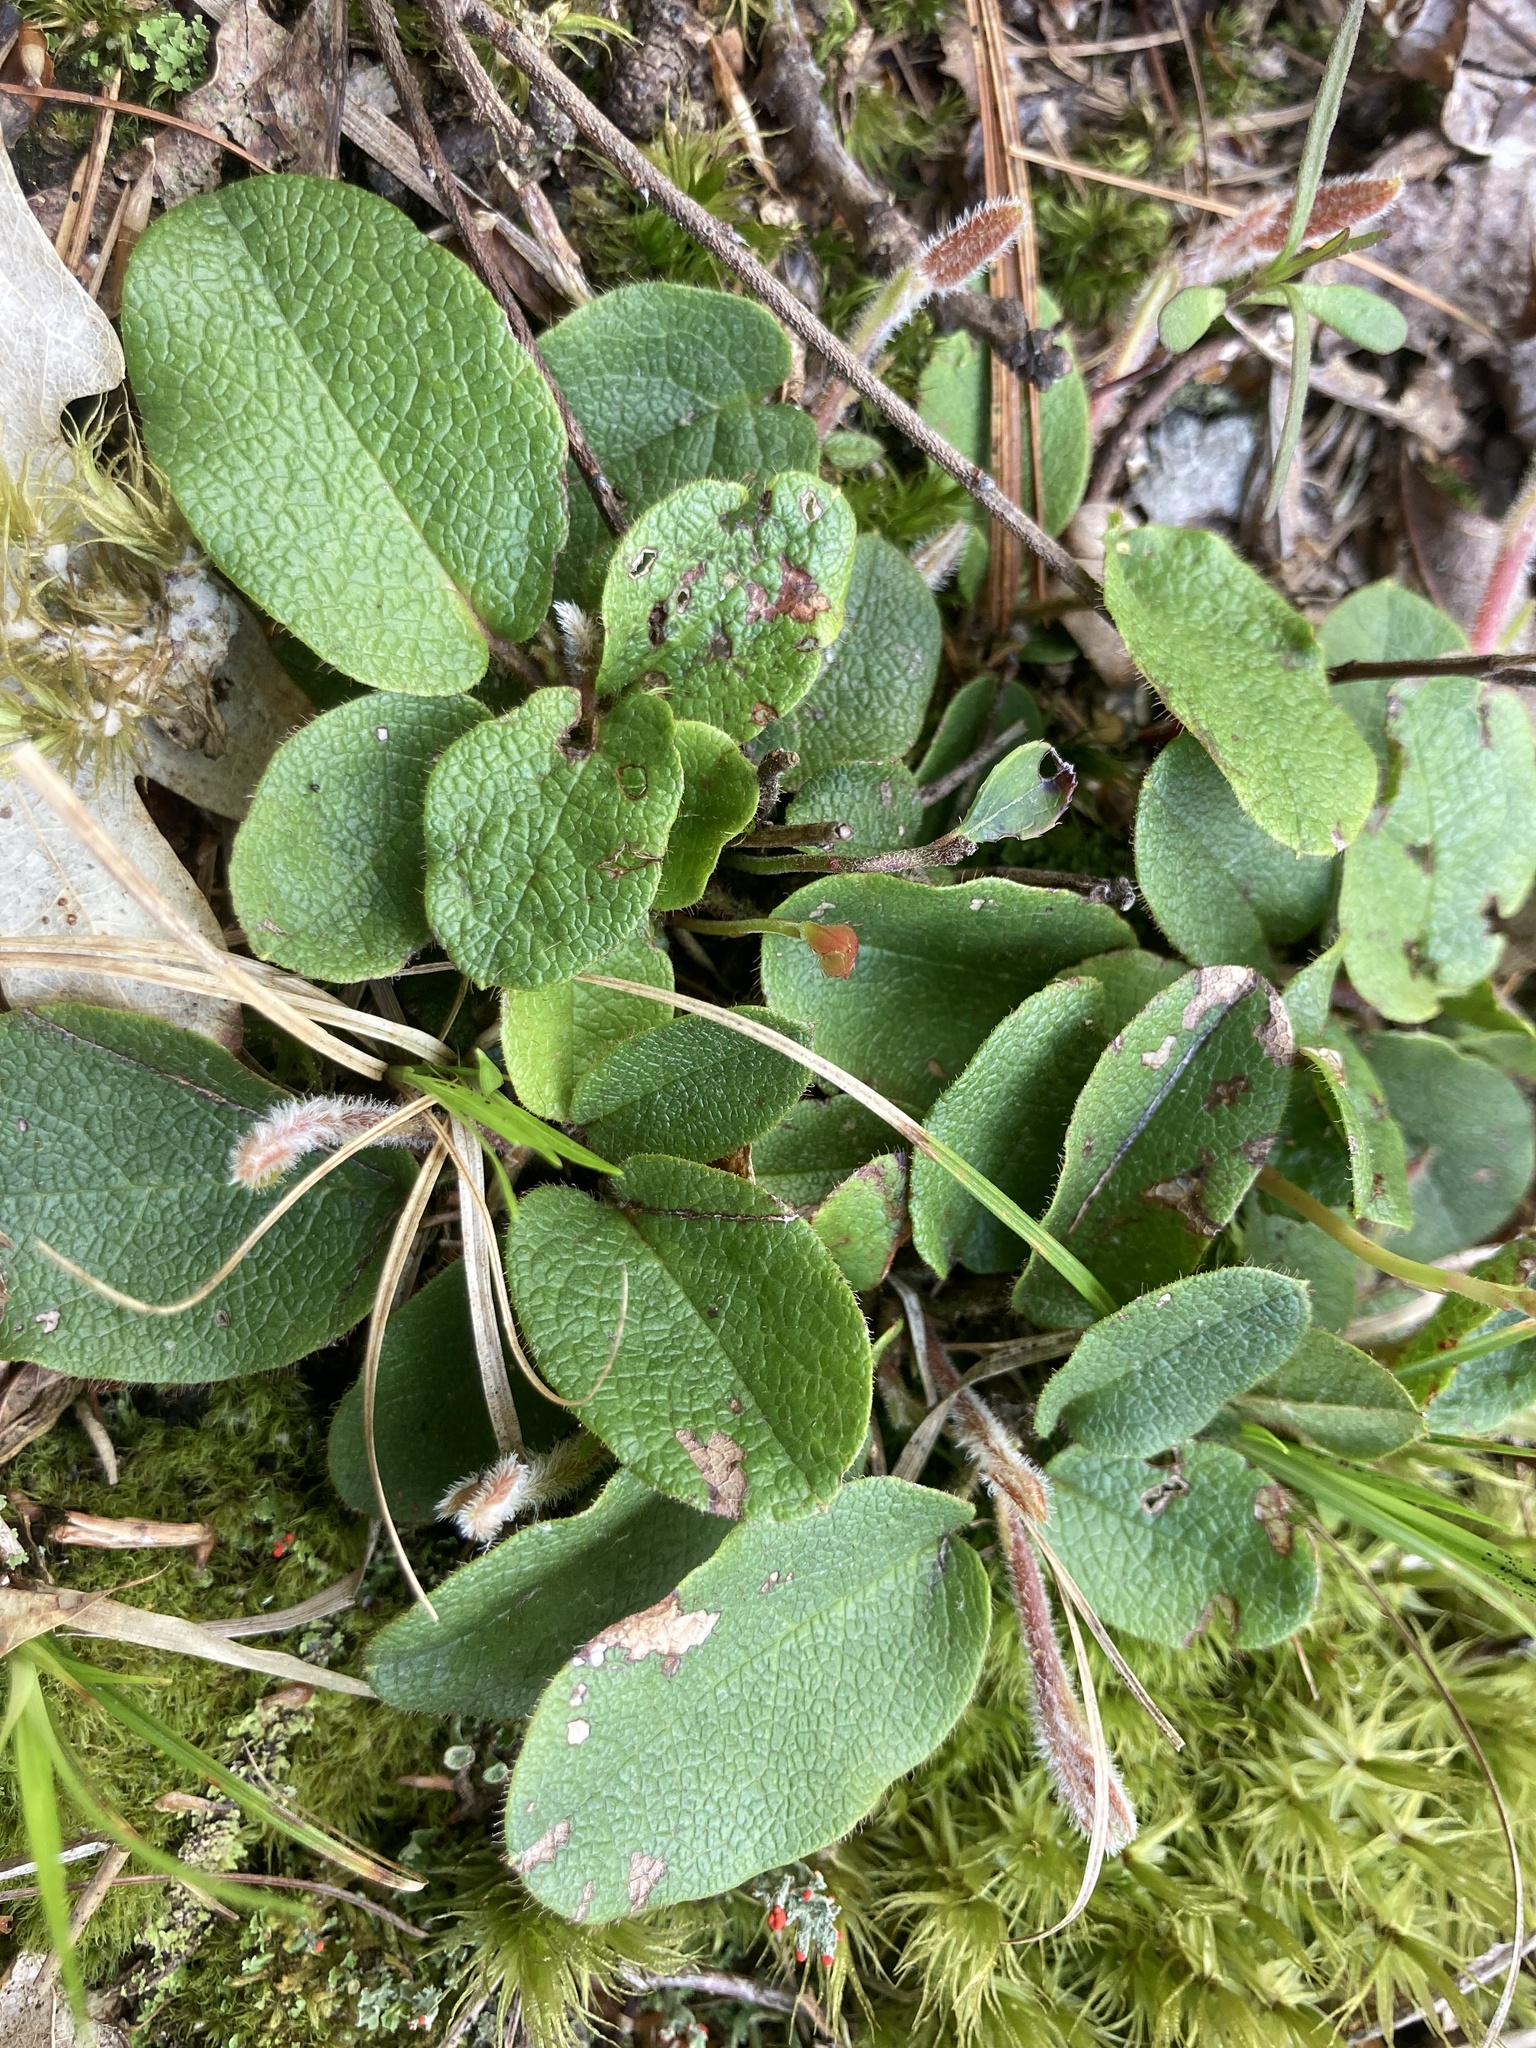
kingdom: Plantae
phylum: Tracheophyta
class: Magnoliopsida
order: Ericales
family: Ericaceae
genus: Epigaea
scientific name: Epigaea repens
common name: Gravelroot
